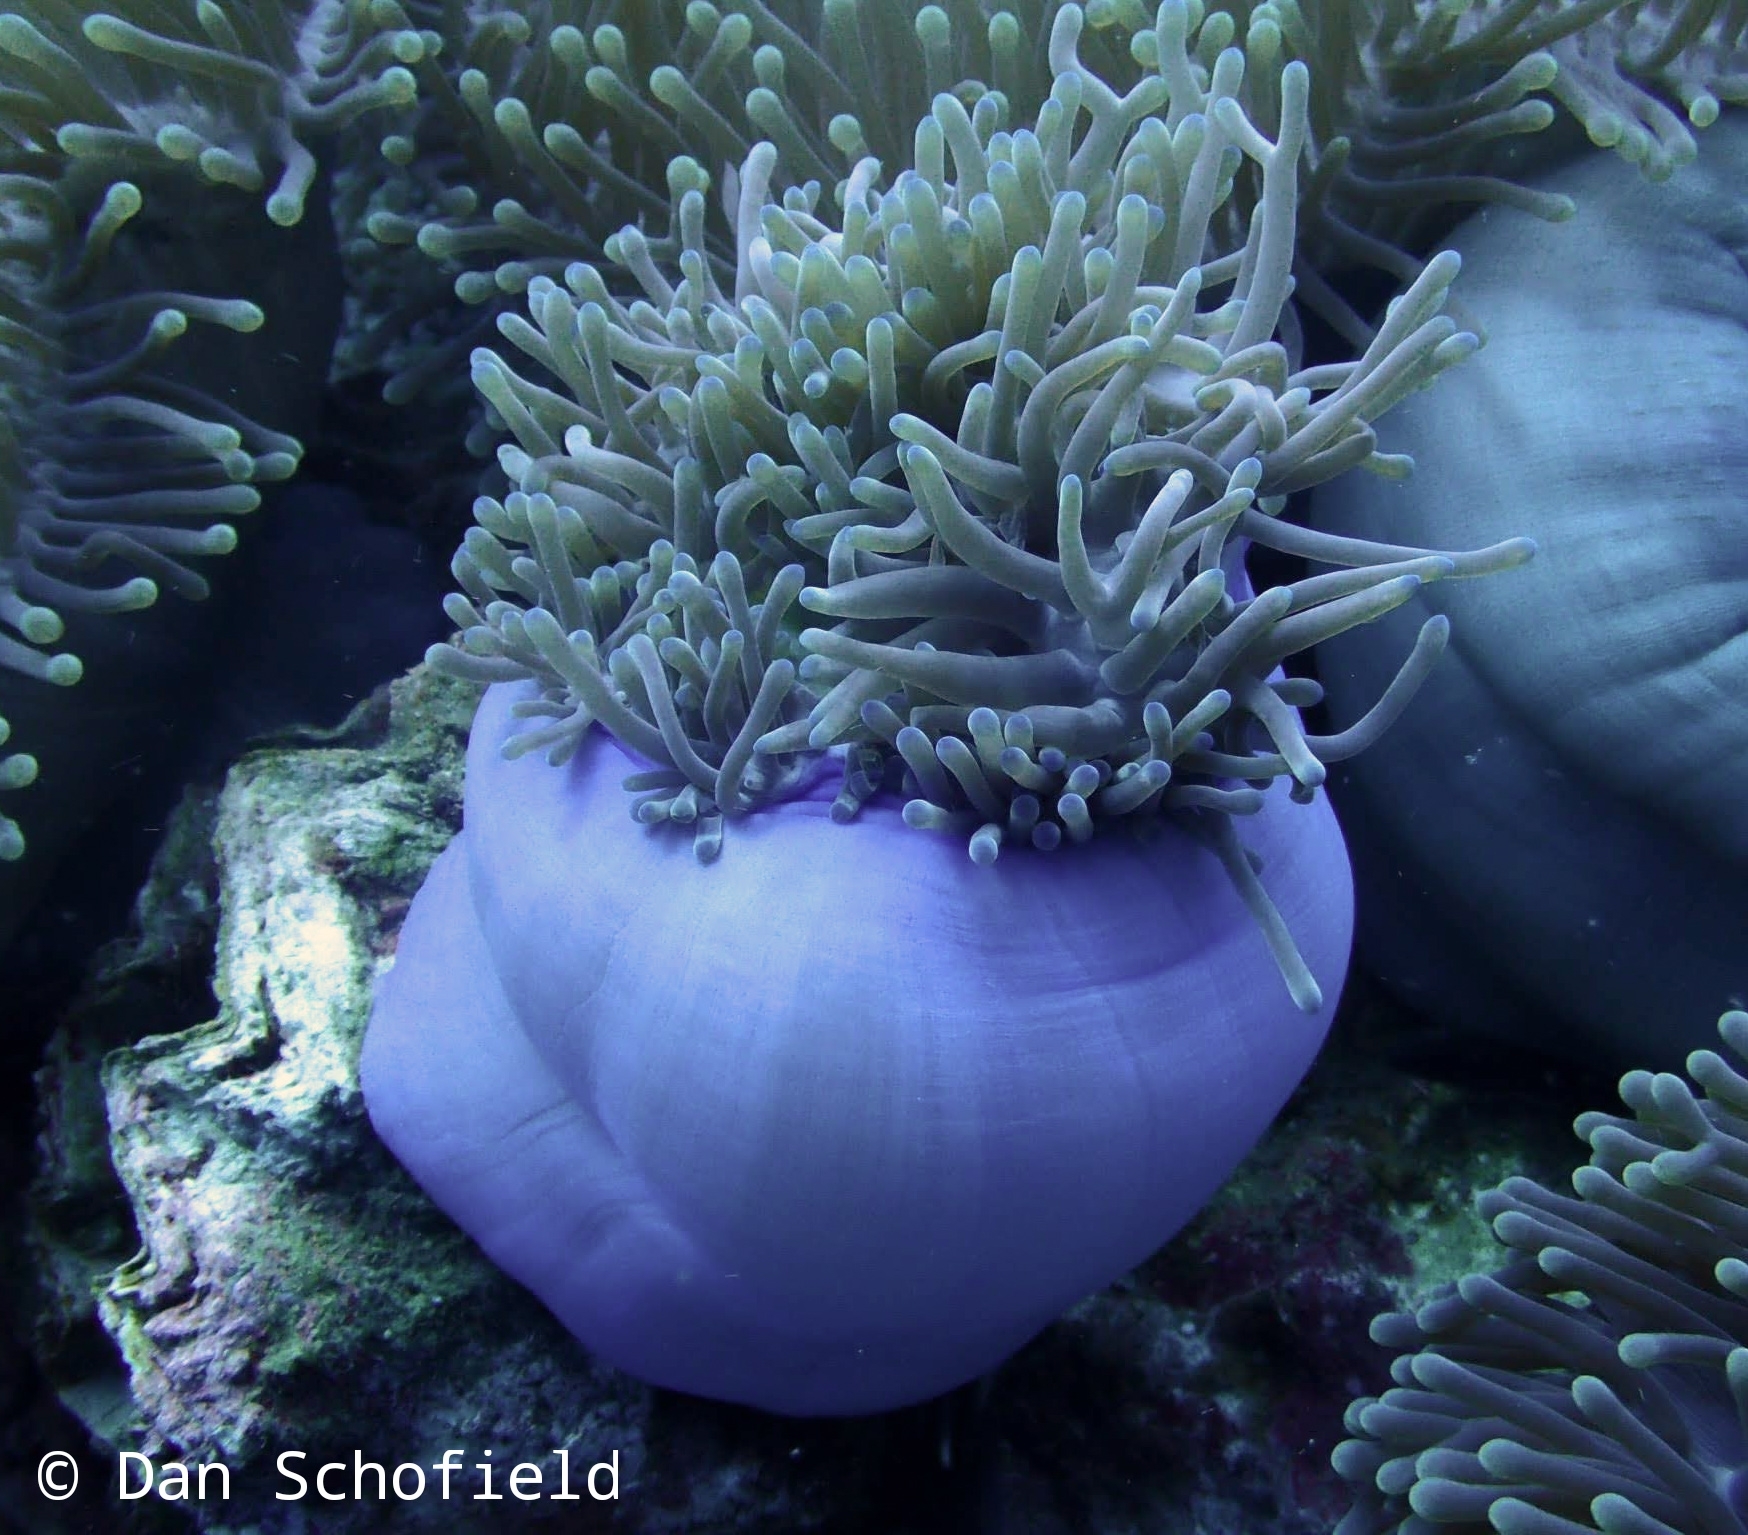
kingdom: Animalia
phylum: Cnidaria
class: Anthozoa
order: Actiniaria
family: Stichodactylidae
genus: Radianthus
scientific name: Radianthus magnifica
